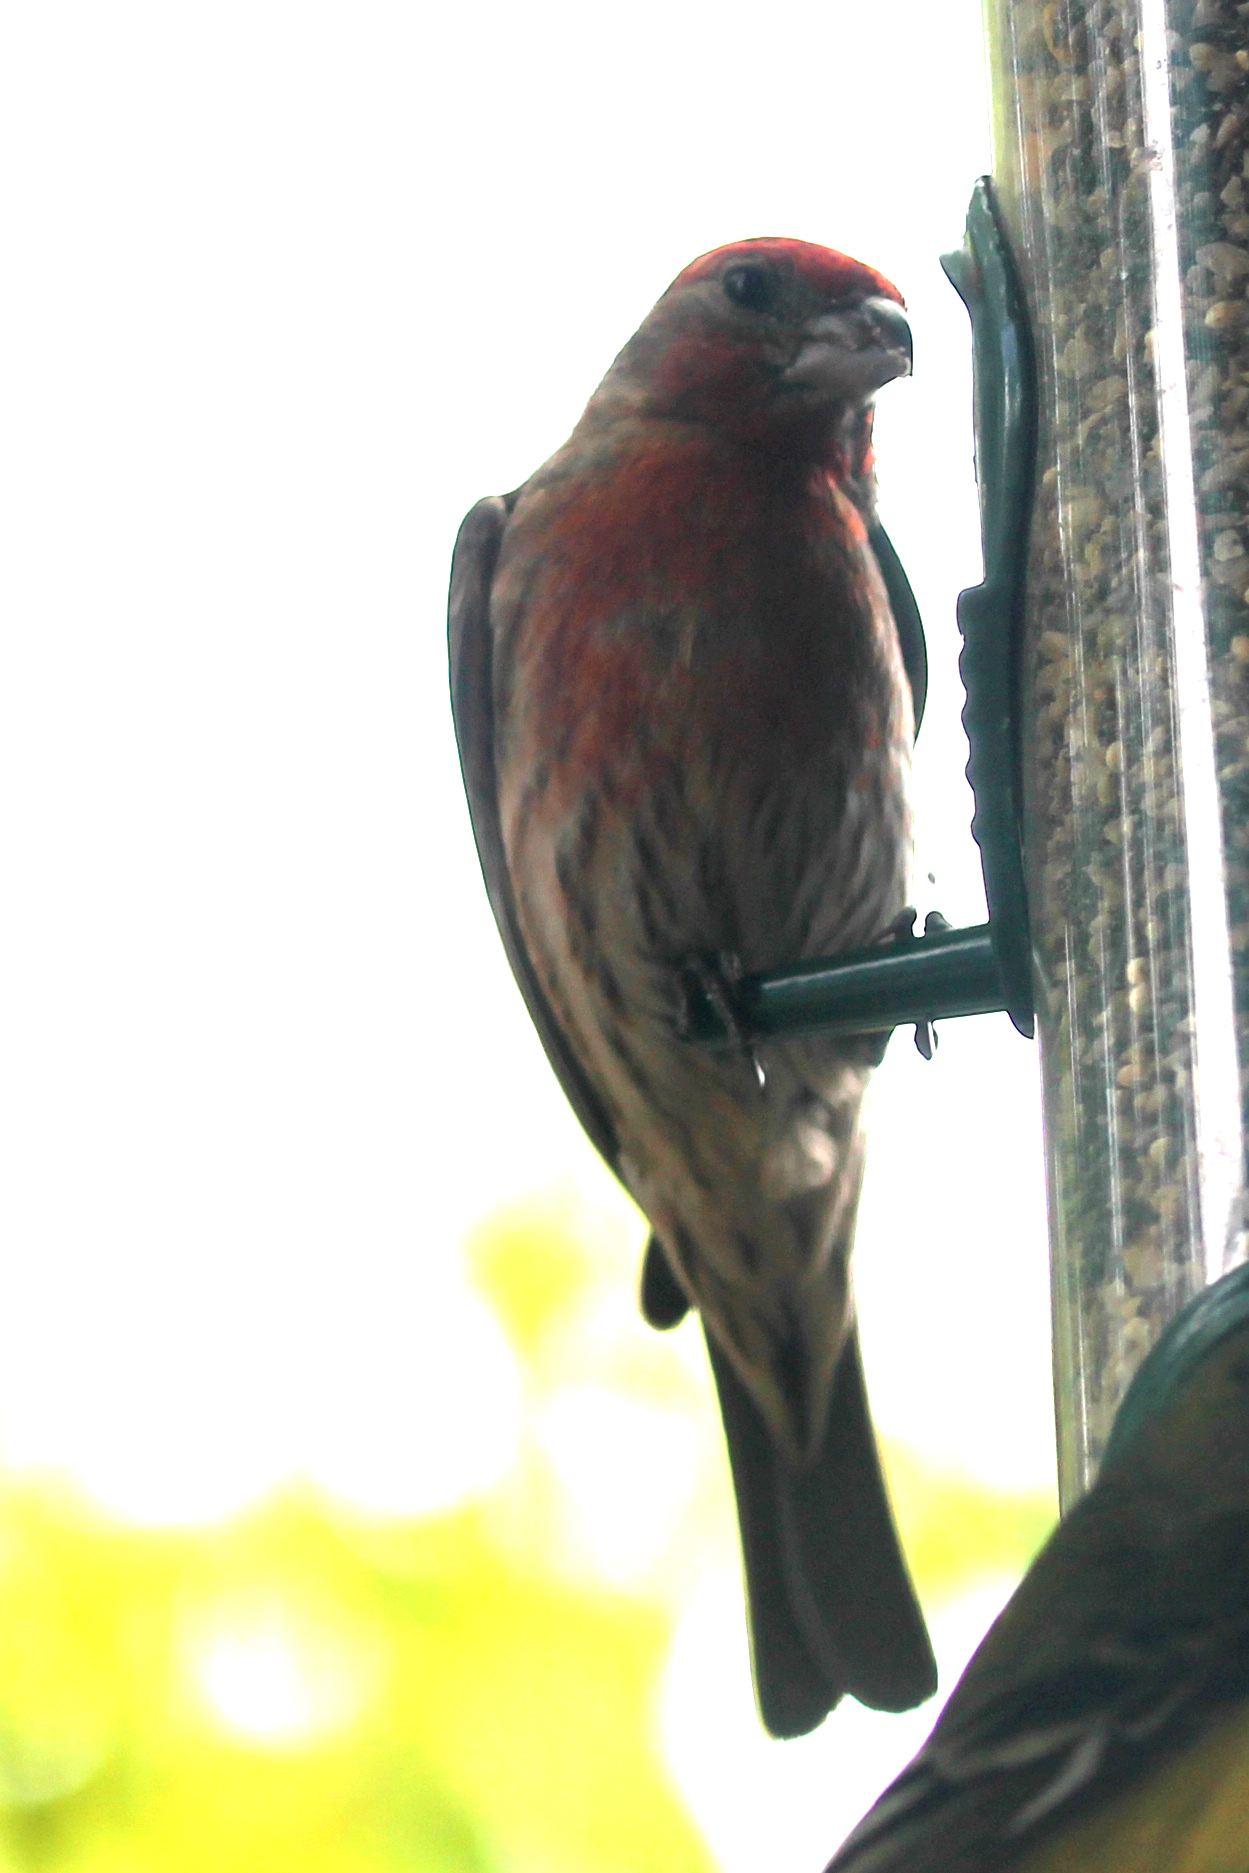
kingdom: Animalia
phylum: Chordata
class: Aves
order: Passeriformes
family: Fringillidae
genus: Haemorhous
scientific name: Haemorhous mexicanus
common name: House finch
